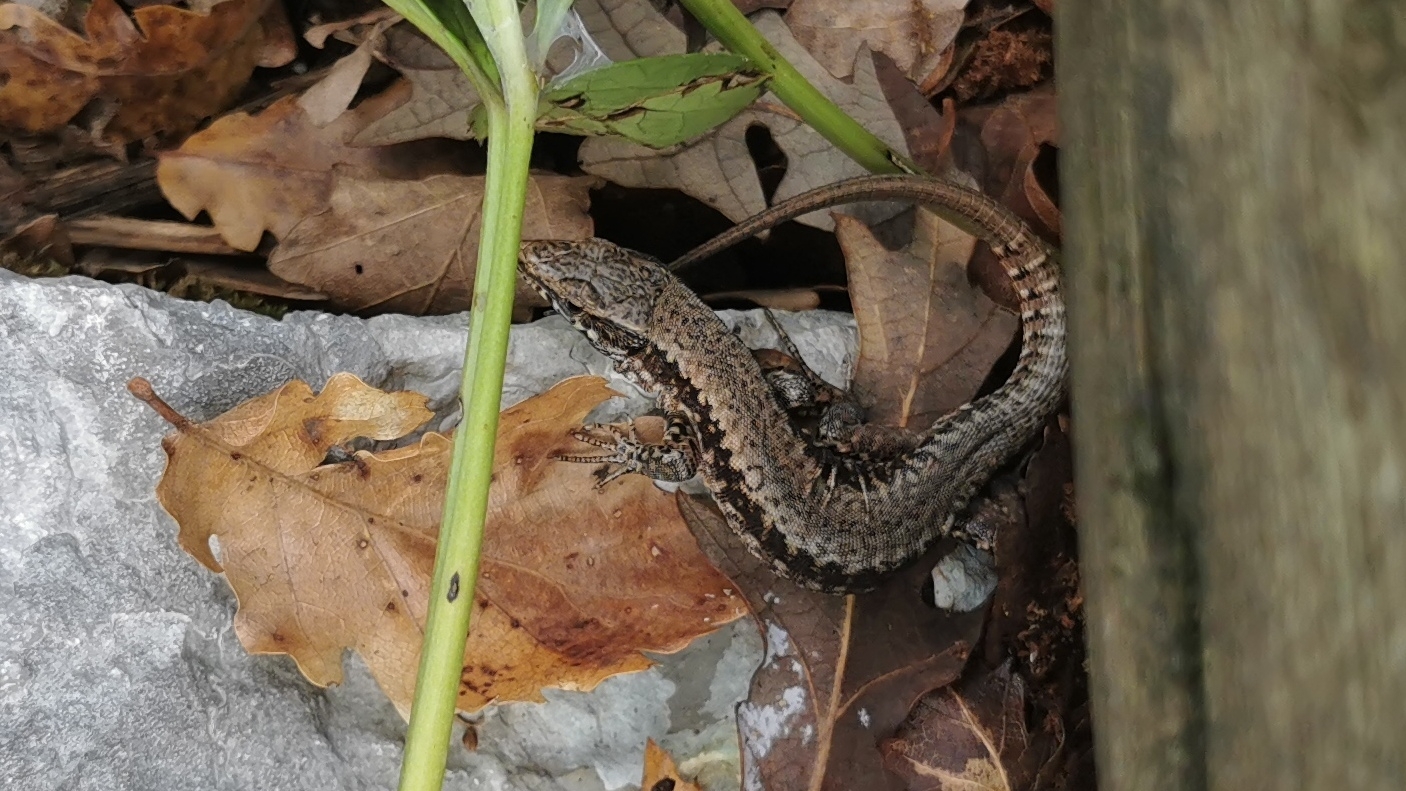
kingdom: Animalia
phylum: Chordata
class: Squamata
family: Lacertidae
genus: Podarcis
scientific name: Podarcis muralis
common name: Common wall lizard
